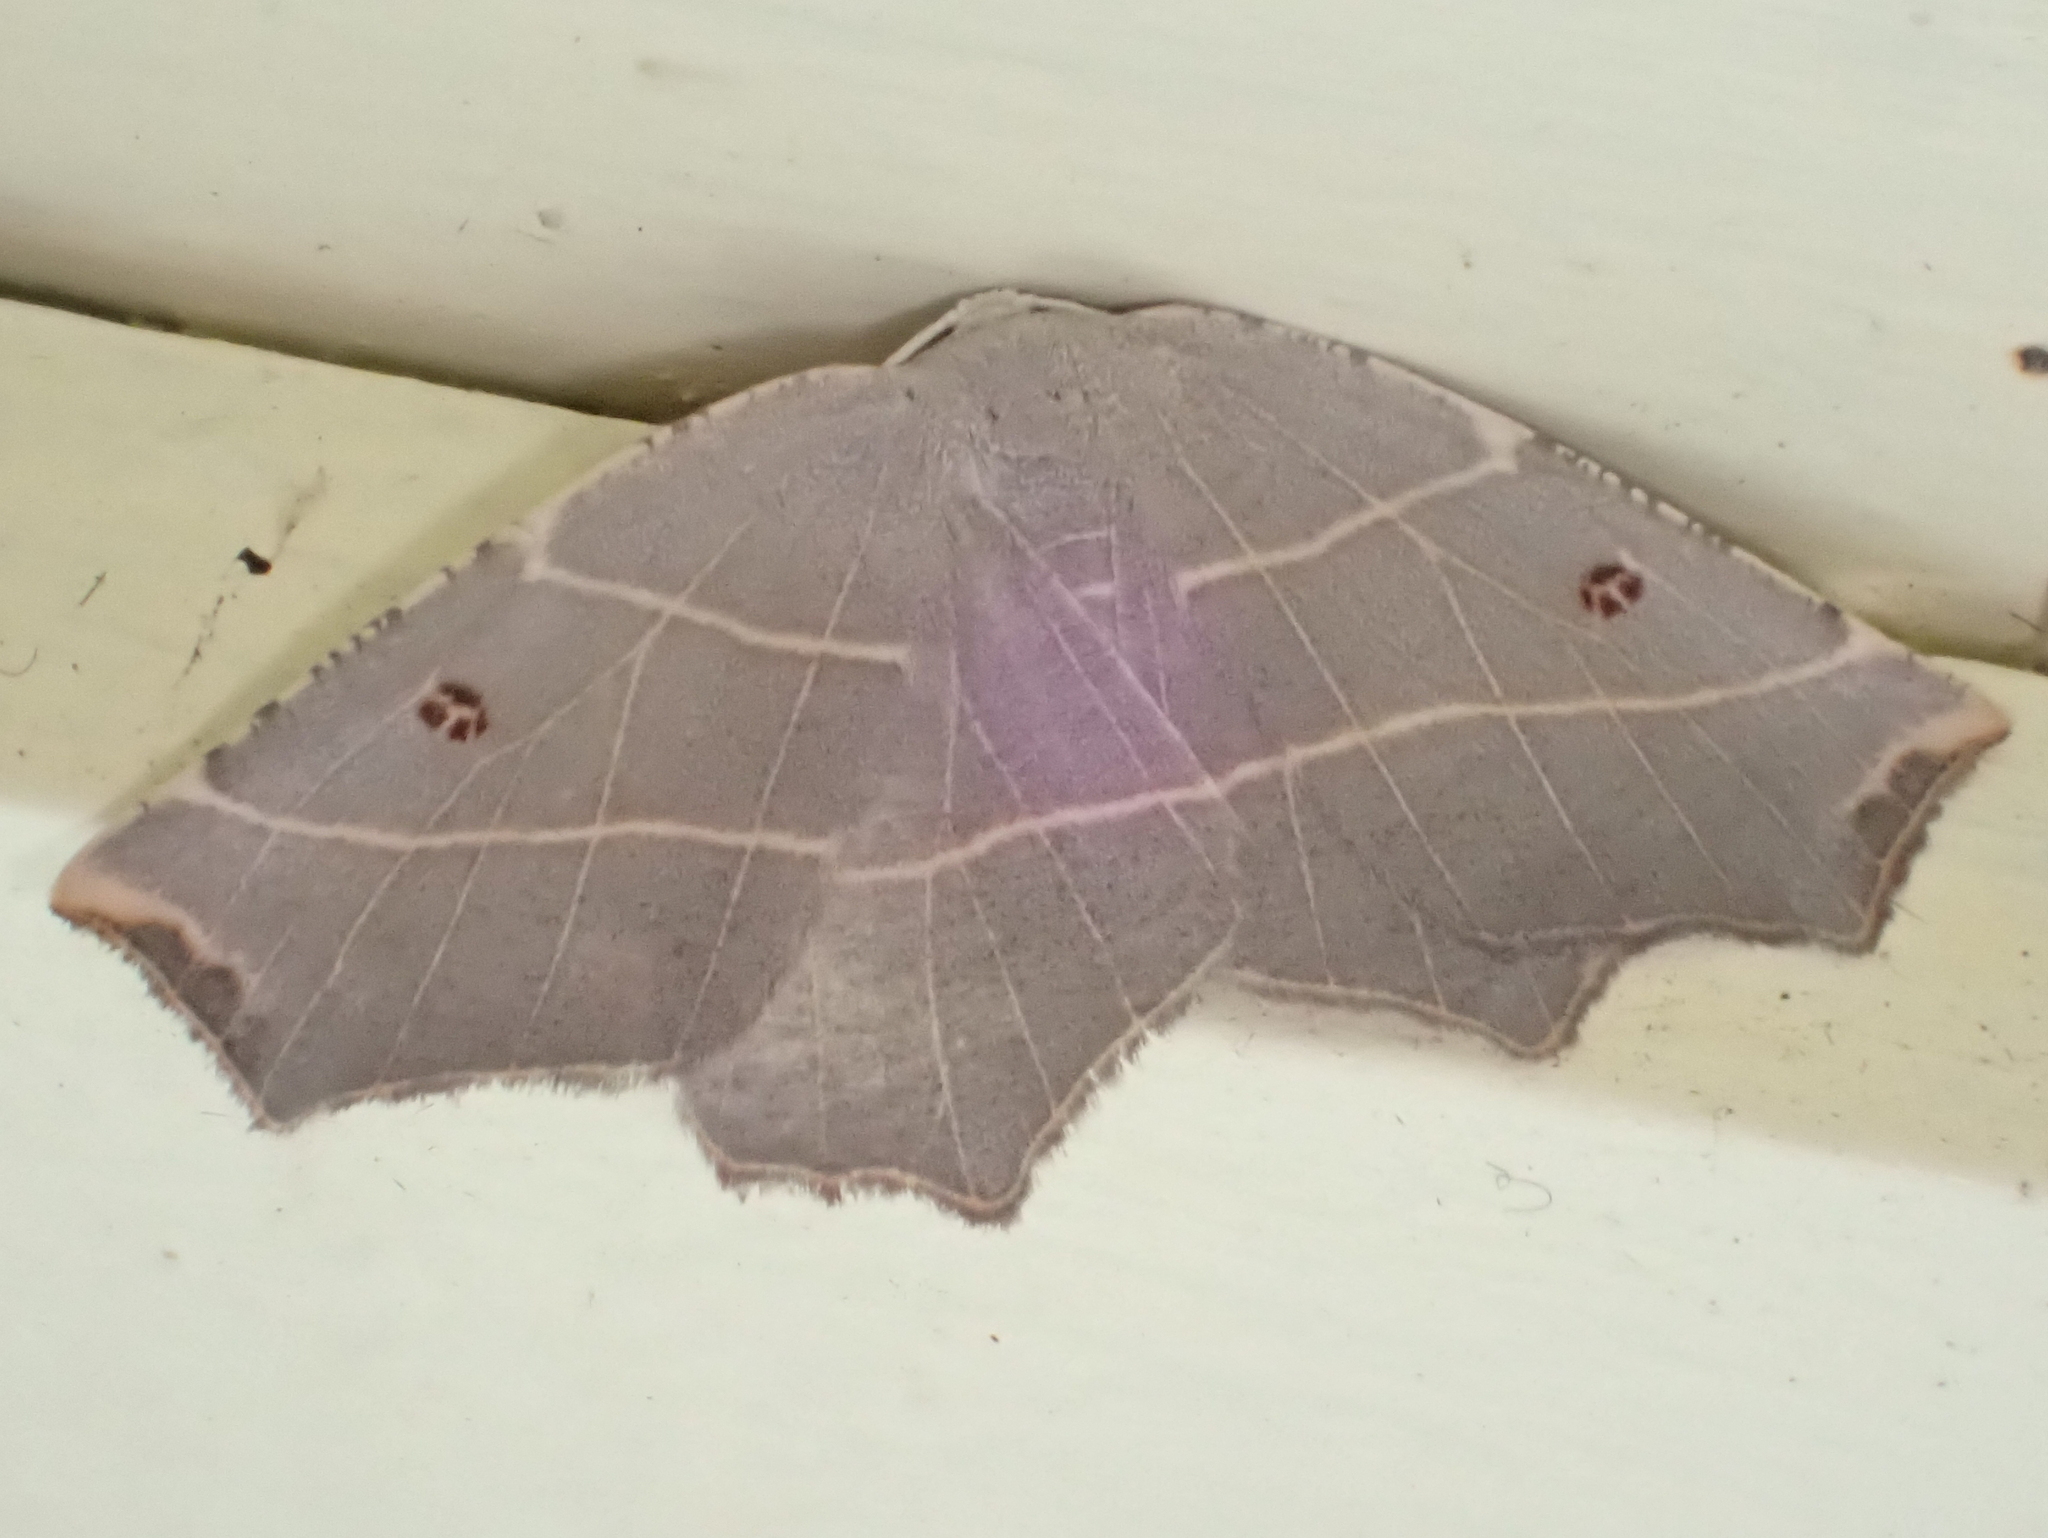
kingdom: Animalia
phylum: Arthropoda
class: Insecta
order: Lepidoptera
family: Geometridae
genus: Metanema
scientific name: Metanema inatomaria
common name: Pale metanema
